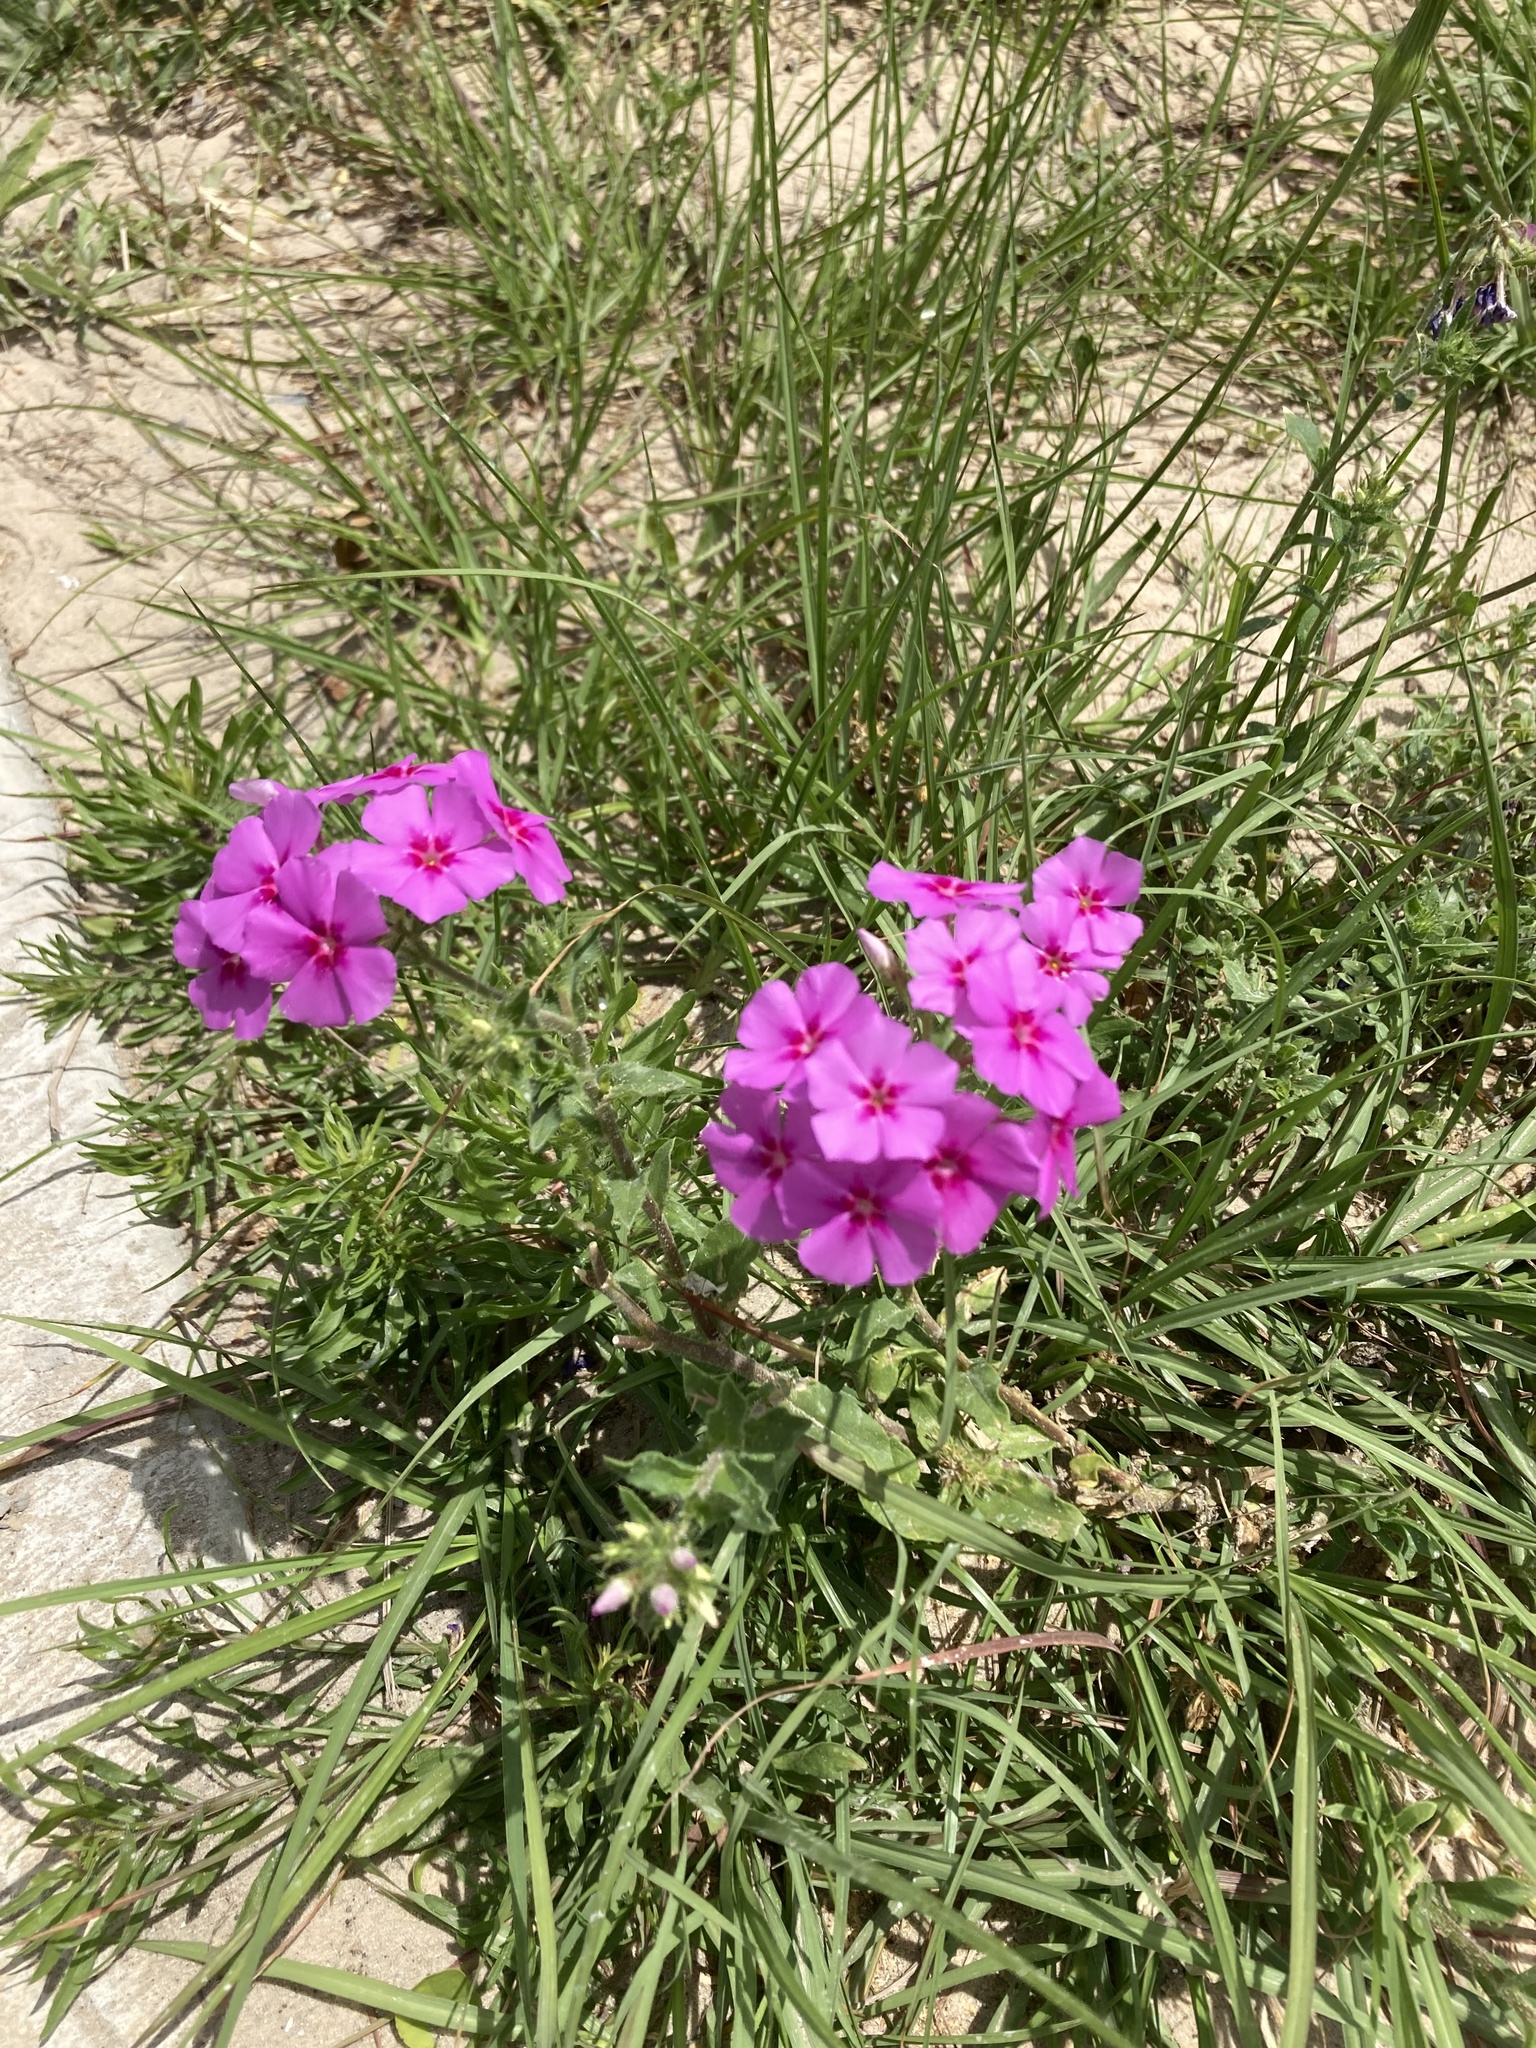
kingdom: Plantae
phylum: Tracheophyta
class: Magnoliopsida
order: Ericales
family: Polemoniaceae
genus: Phlox
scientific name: Phlox drummondii
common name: Drummond's phlox
